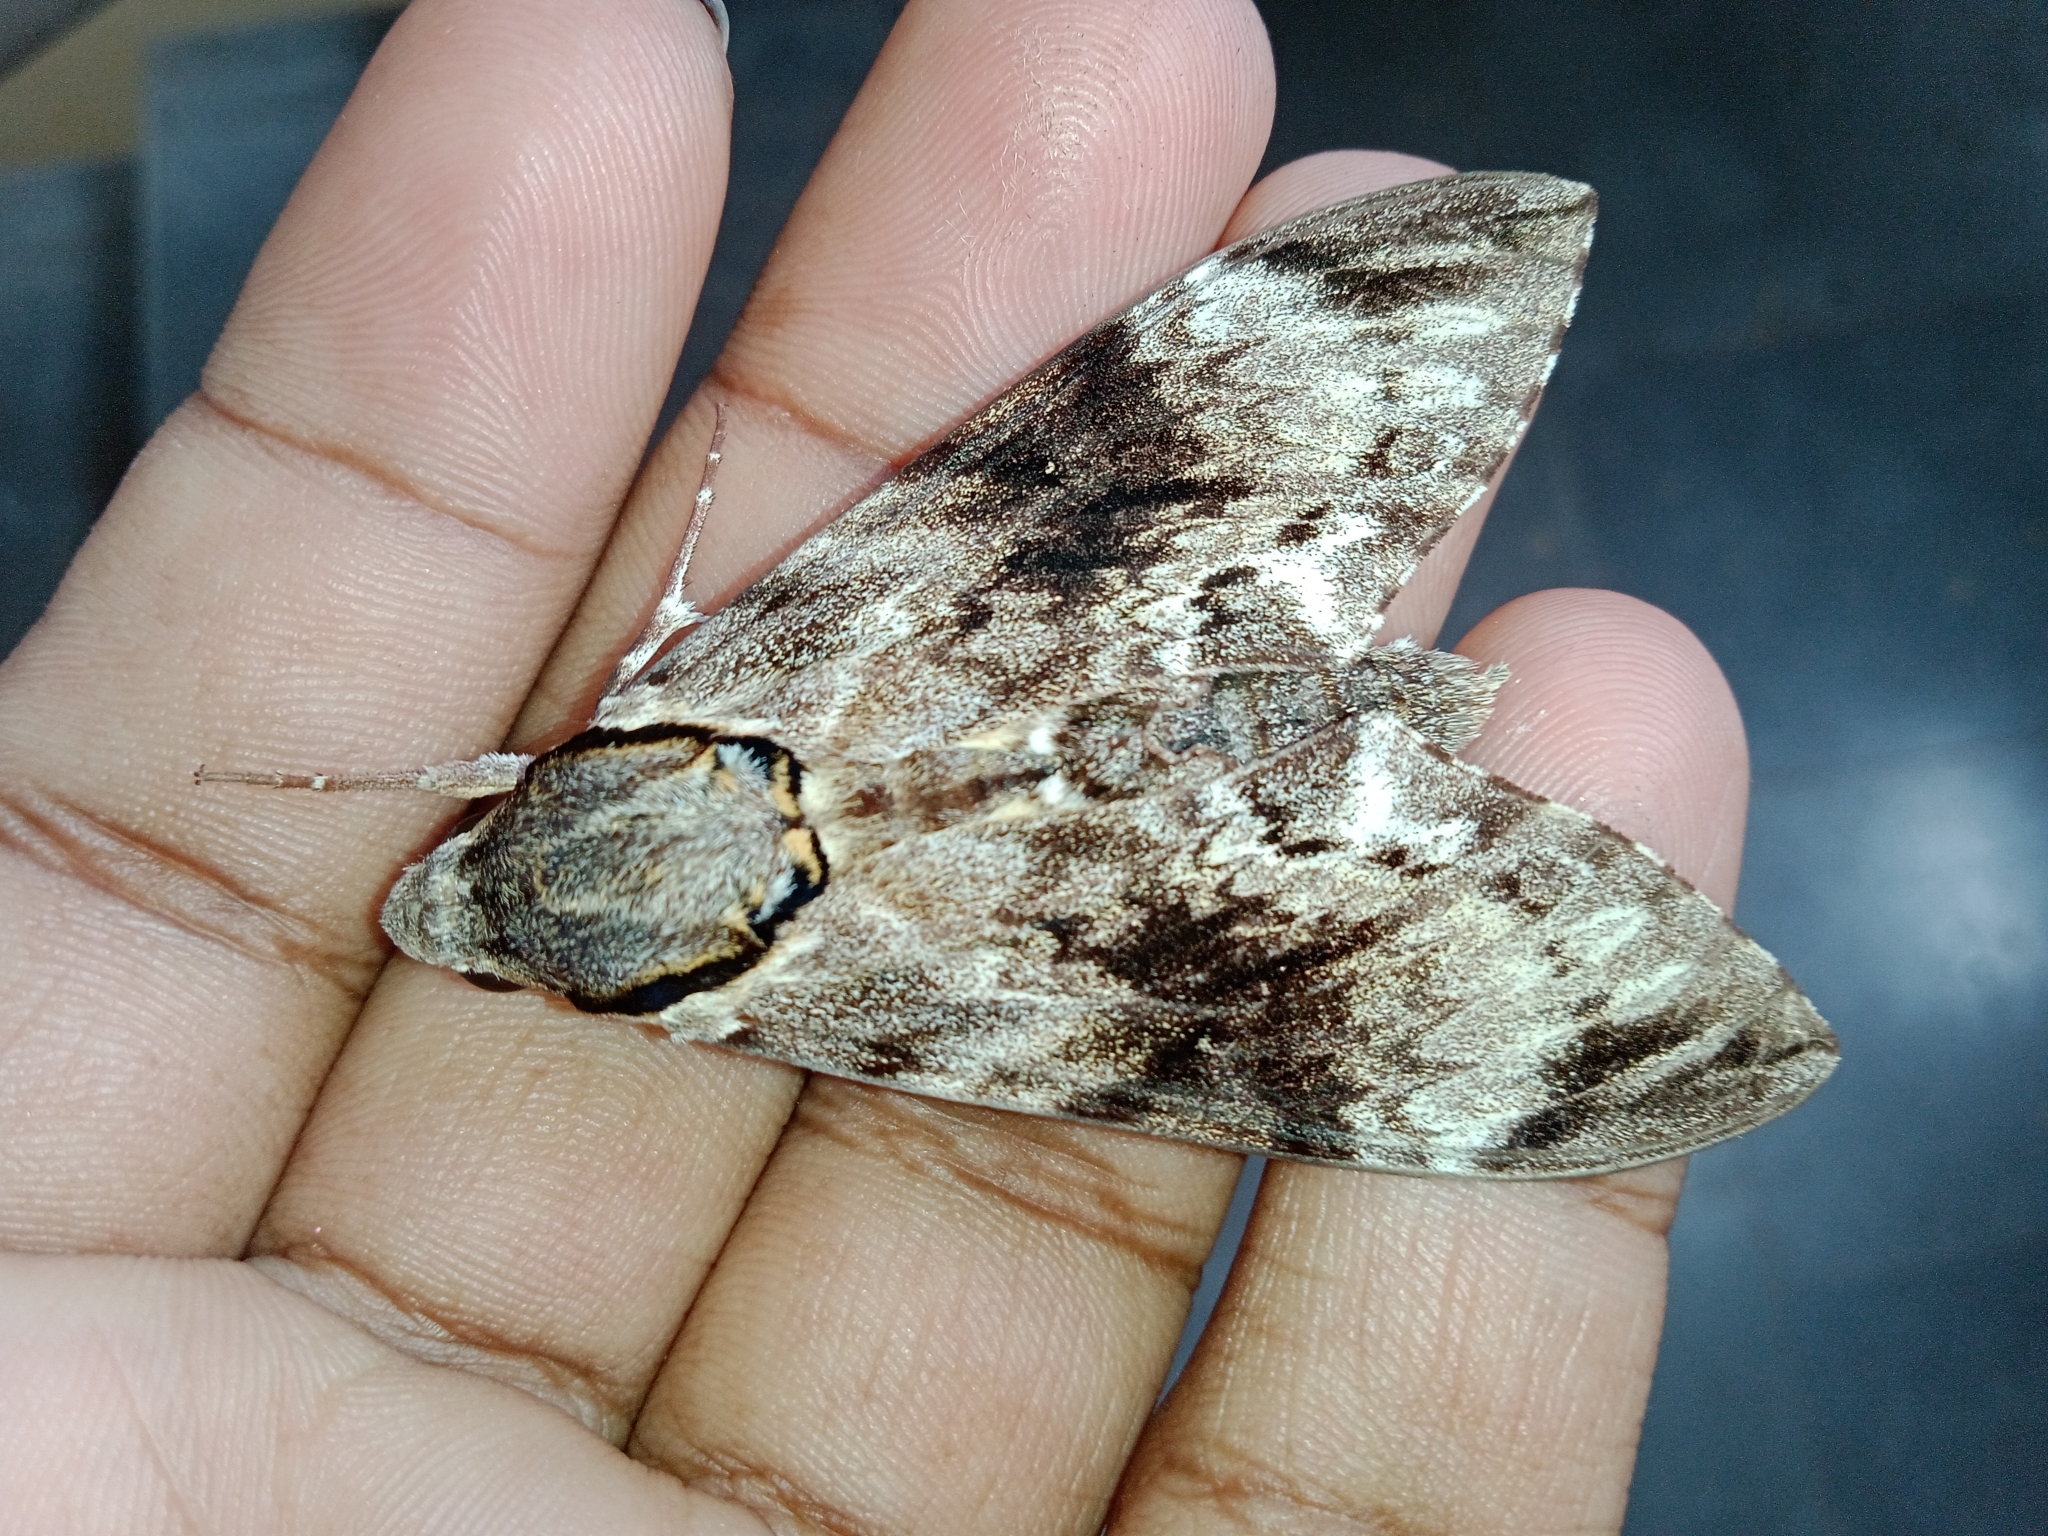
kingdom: Animalia
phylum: Arthropoda
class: Insecta
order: Lepidoptera
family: Sphingidae
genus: Psilogramma
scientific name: Psilogramma vates
